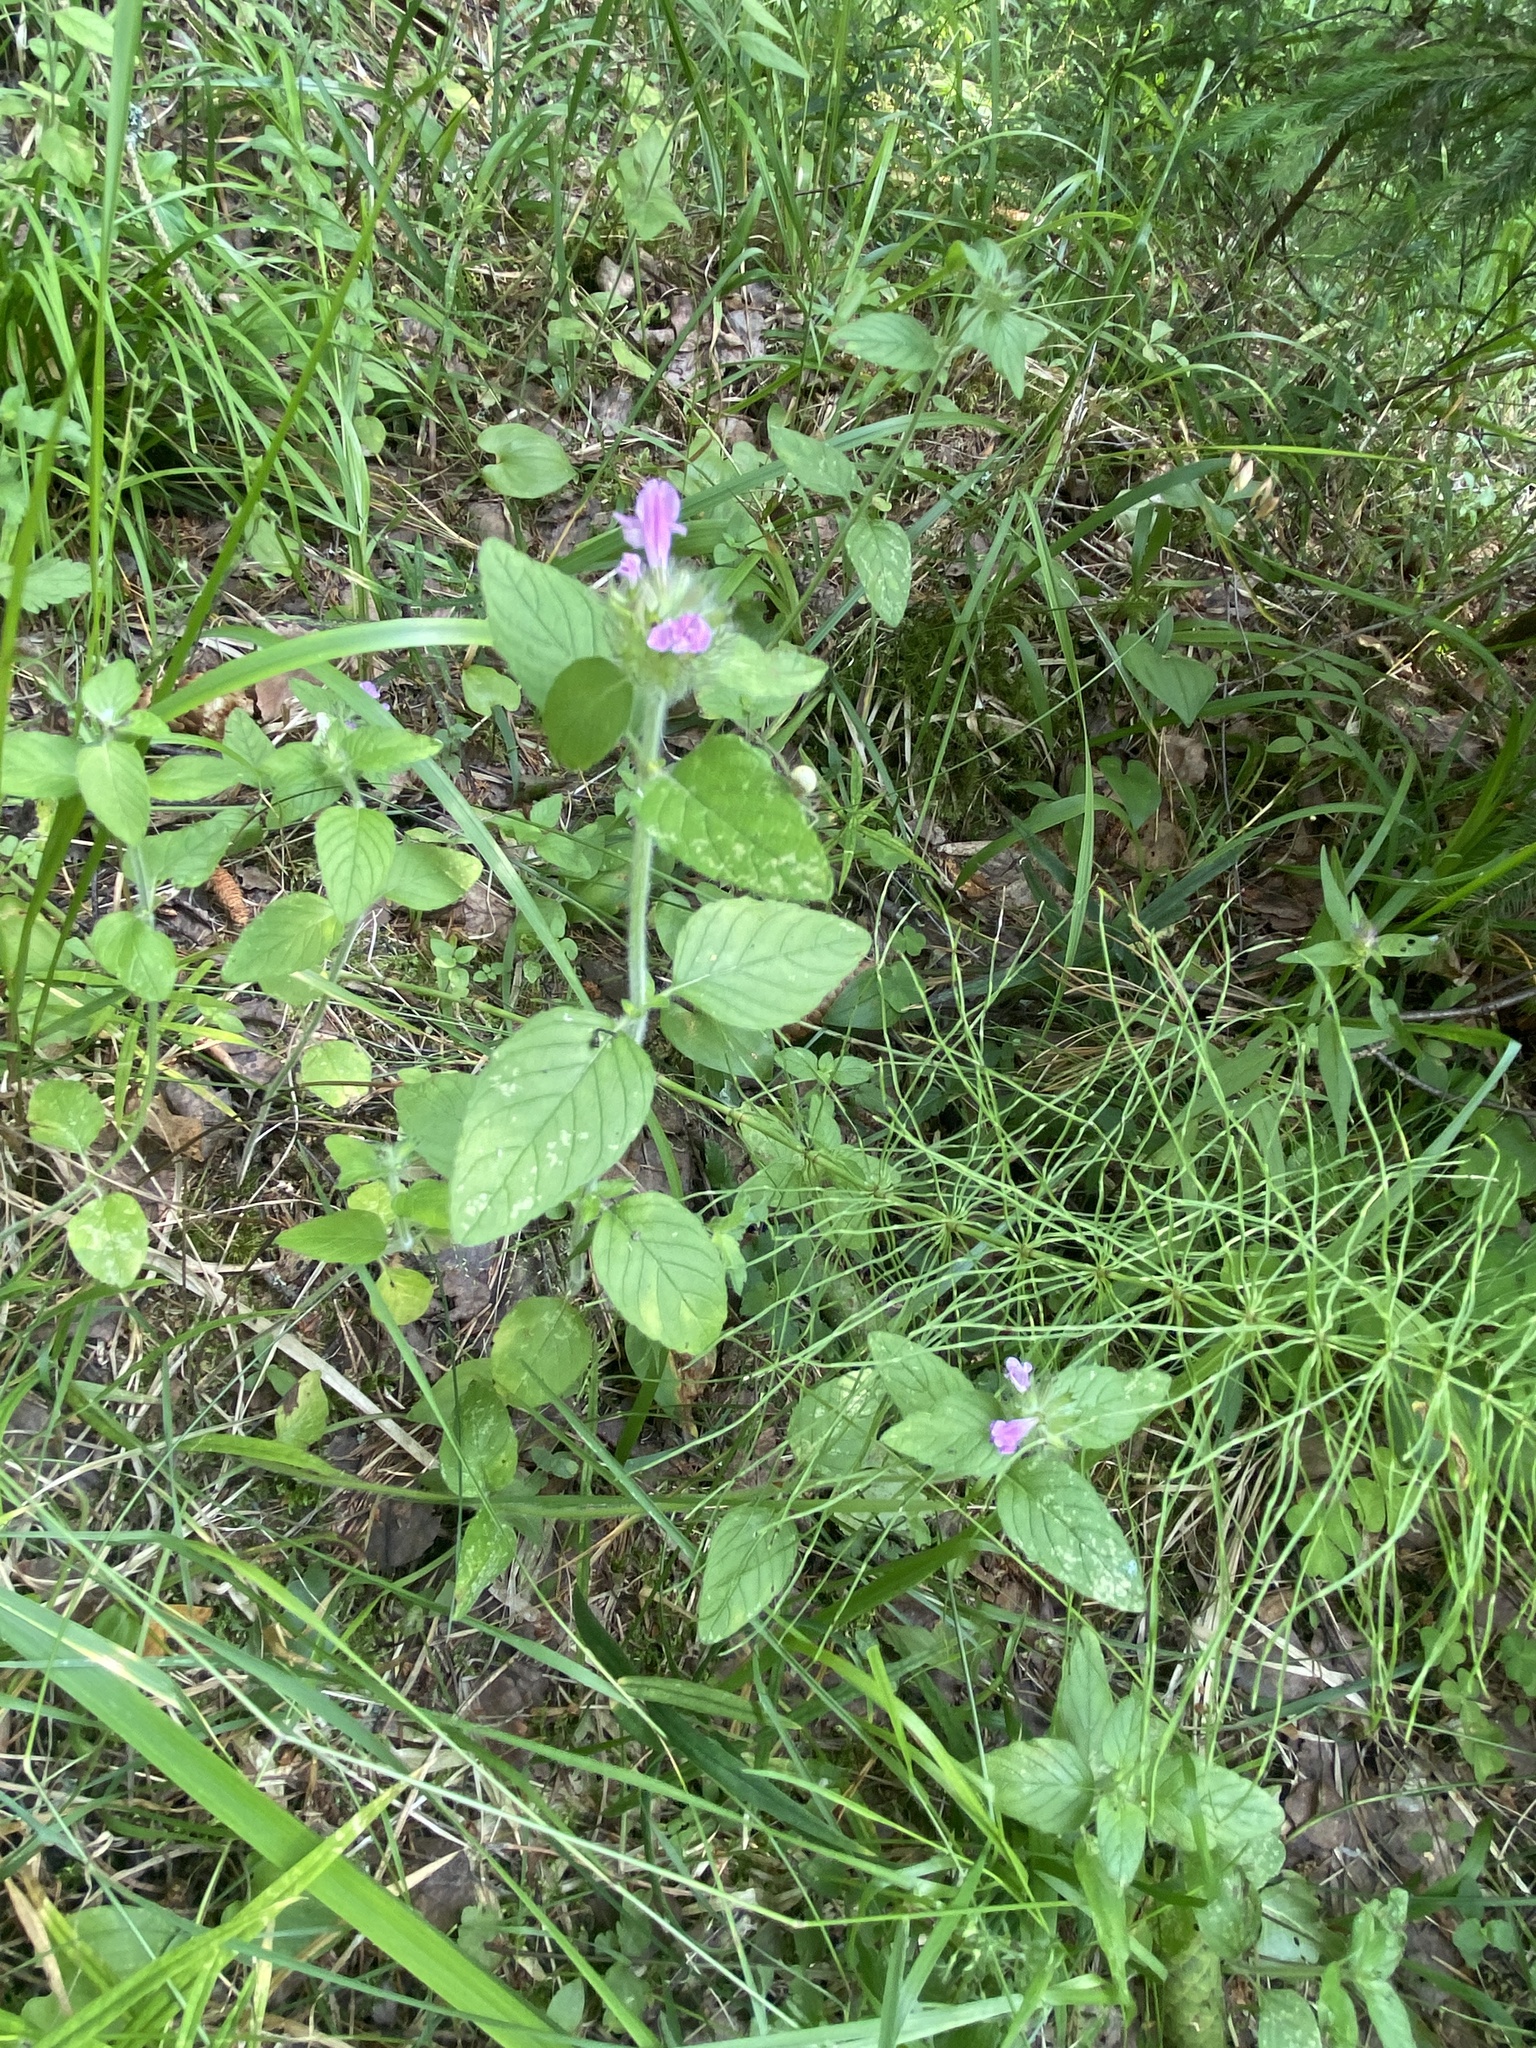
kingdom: Plantae
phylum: Tracheophyta
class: Magnoliopsida
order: Lamiales
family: Lamiaceae
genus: Clinopodium
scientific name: Clinopodium vulgare
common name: Wild basil
